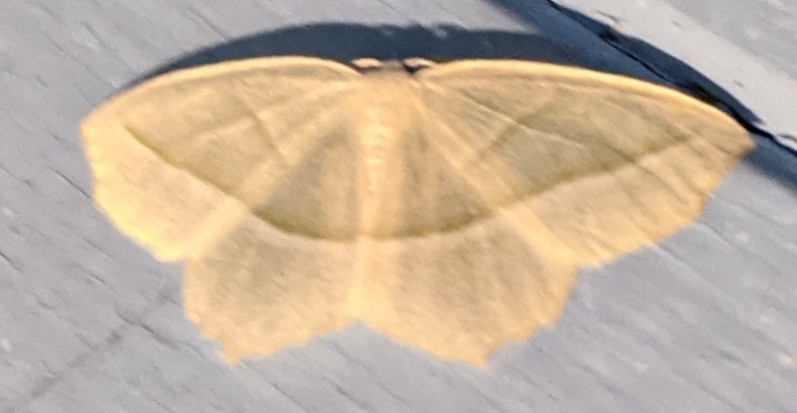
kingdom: Animalia
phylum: Arthropoda
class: Insecta
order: Lepidoptera
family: Geometridae
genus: Campaea
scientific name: Campaea perlata
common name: Fringed looper
